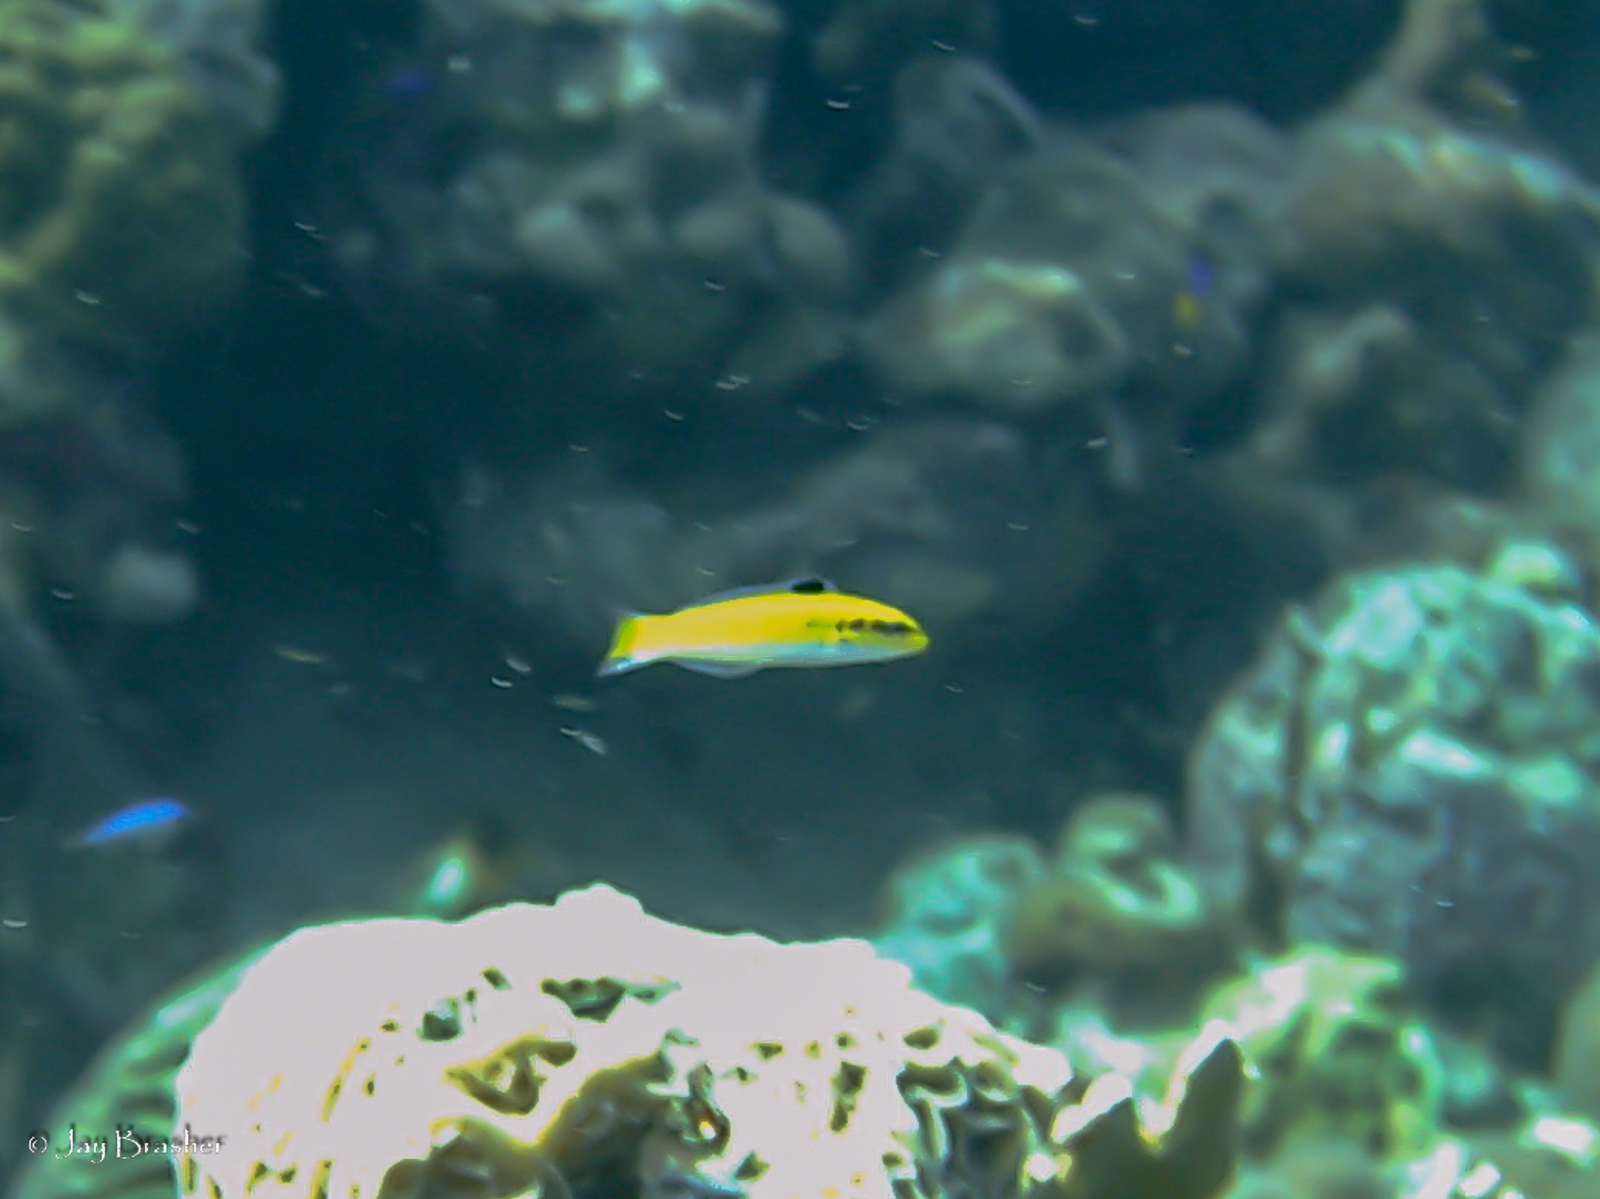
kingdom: Animalia
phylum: Chordata
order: Perciformes
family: Labridae
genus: Thalassoma
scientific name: Thalassoma bifasciatum
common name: Bluehead wrasse
